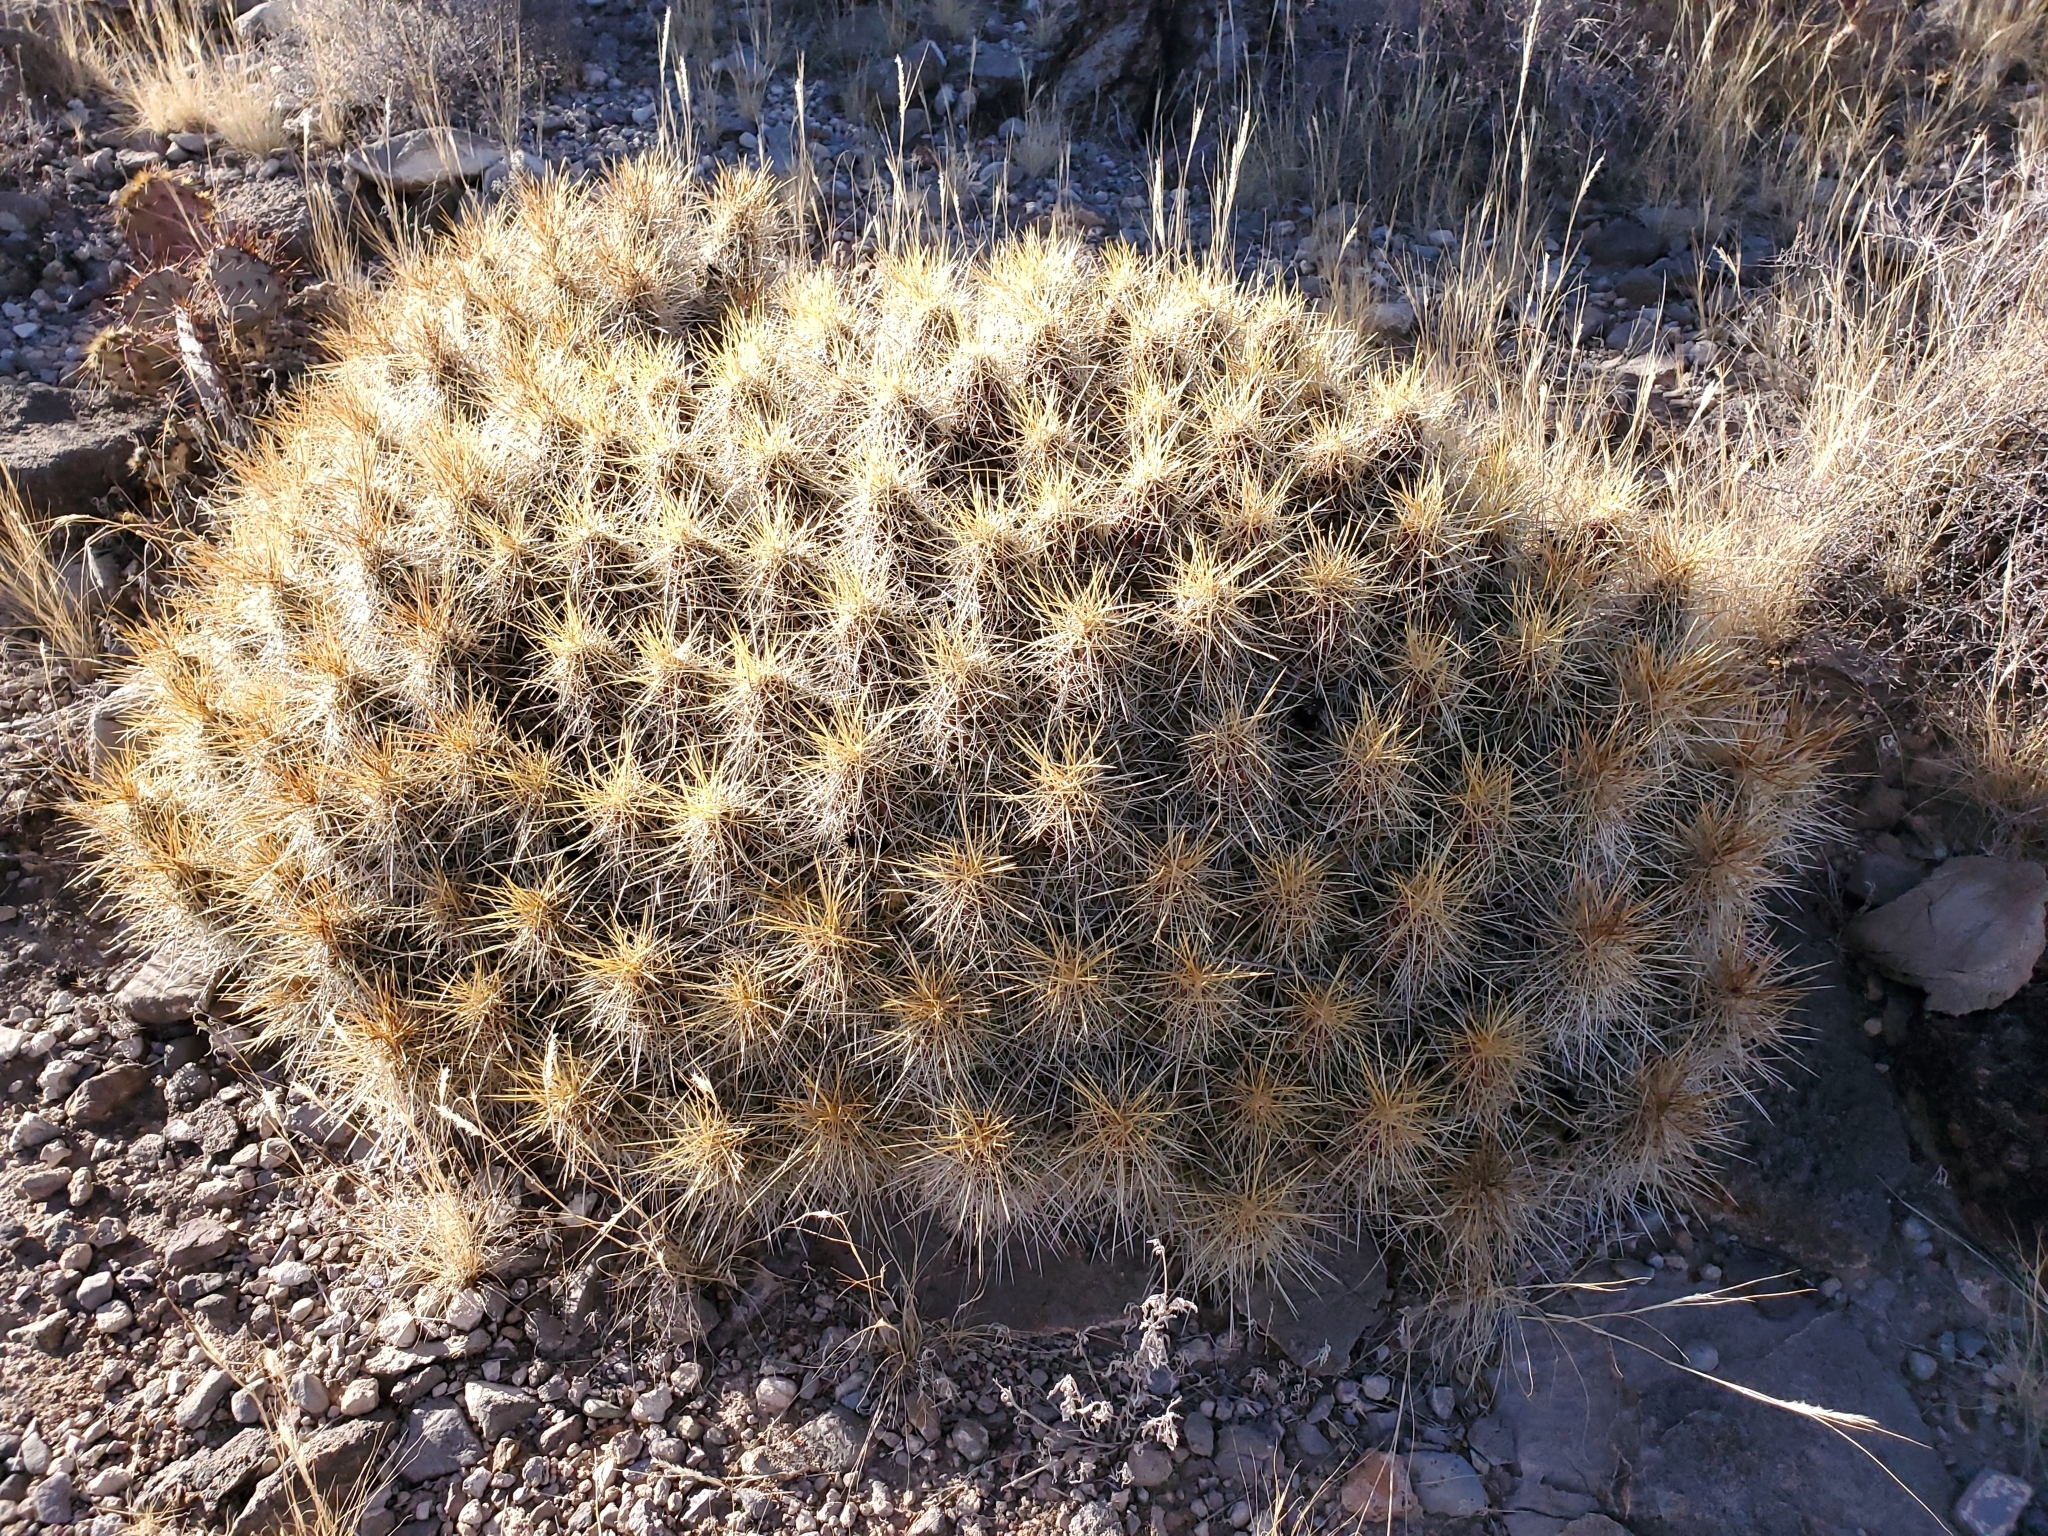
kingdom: Plantae
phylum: Tracheophyta
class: Magnoliopsida
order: Caryophyllales
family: Cactaceae
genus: Echinocereus
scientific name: Echinocereus stramineus
